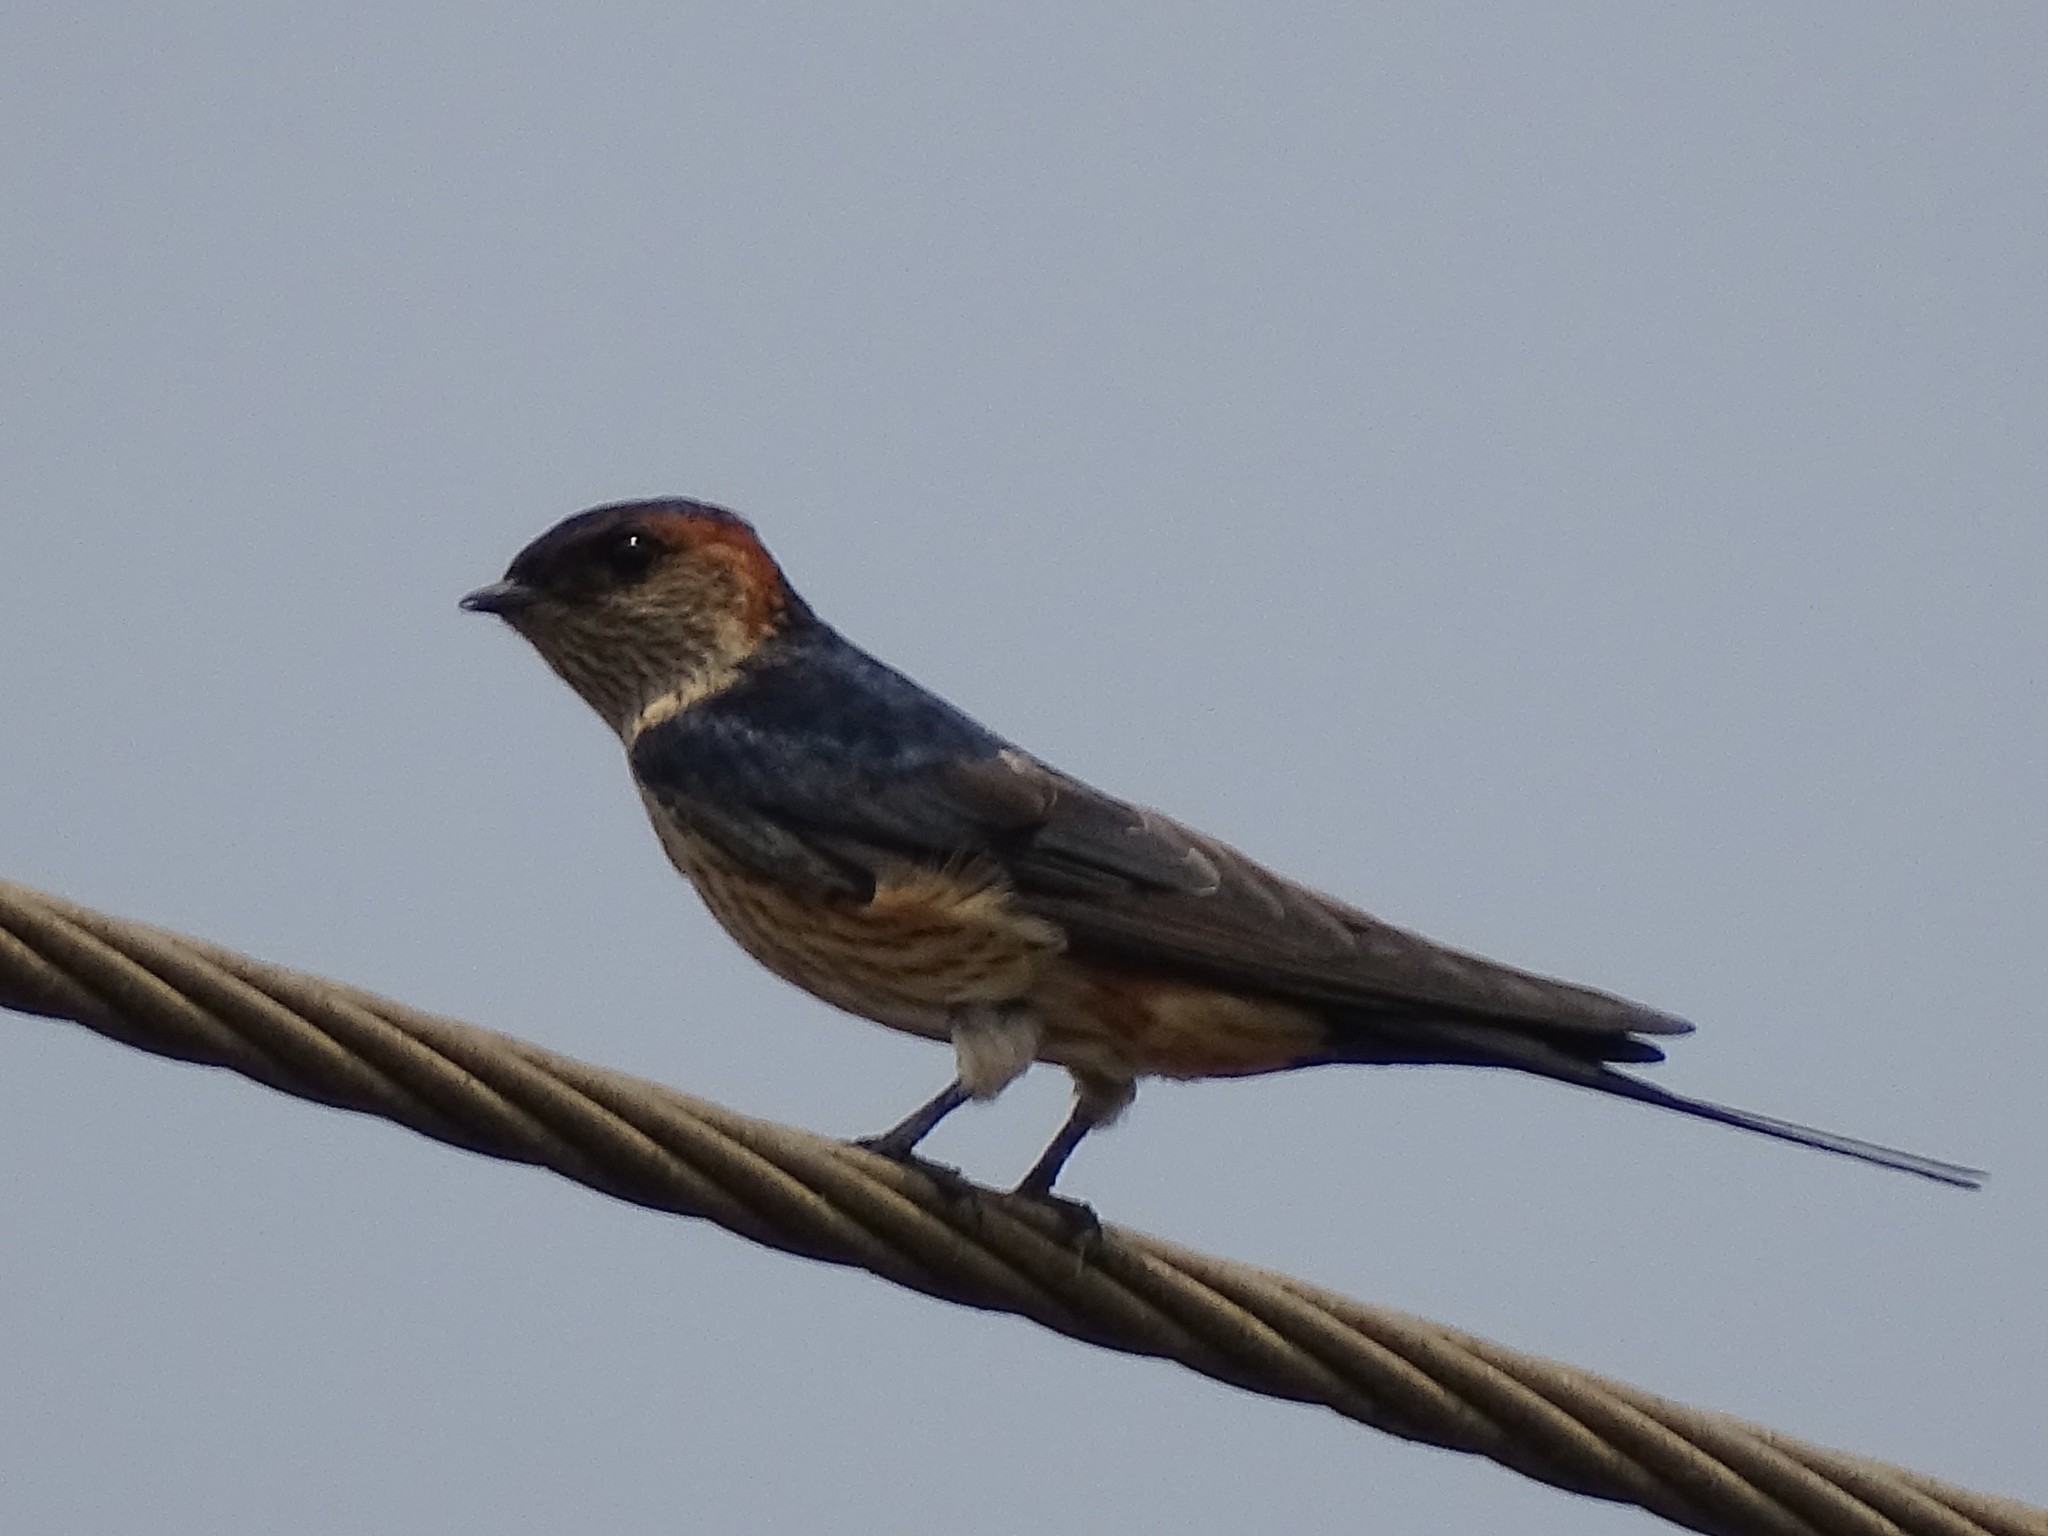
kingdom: Animalia
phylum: Chordata
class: Aves
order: Passeriformes
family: Hirundinidae
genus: Cecropis
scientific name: Cecropis daurica
